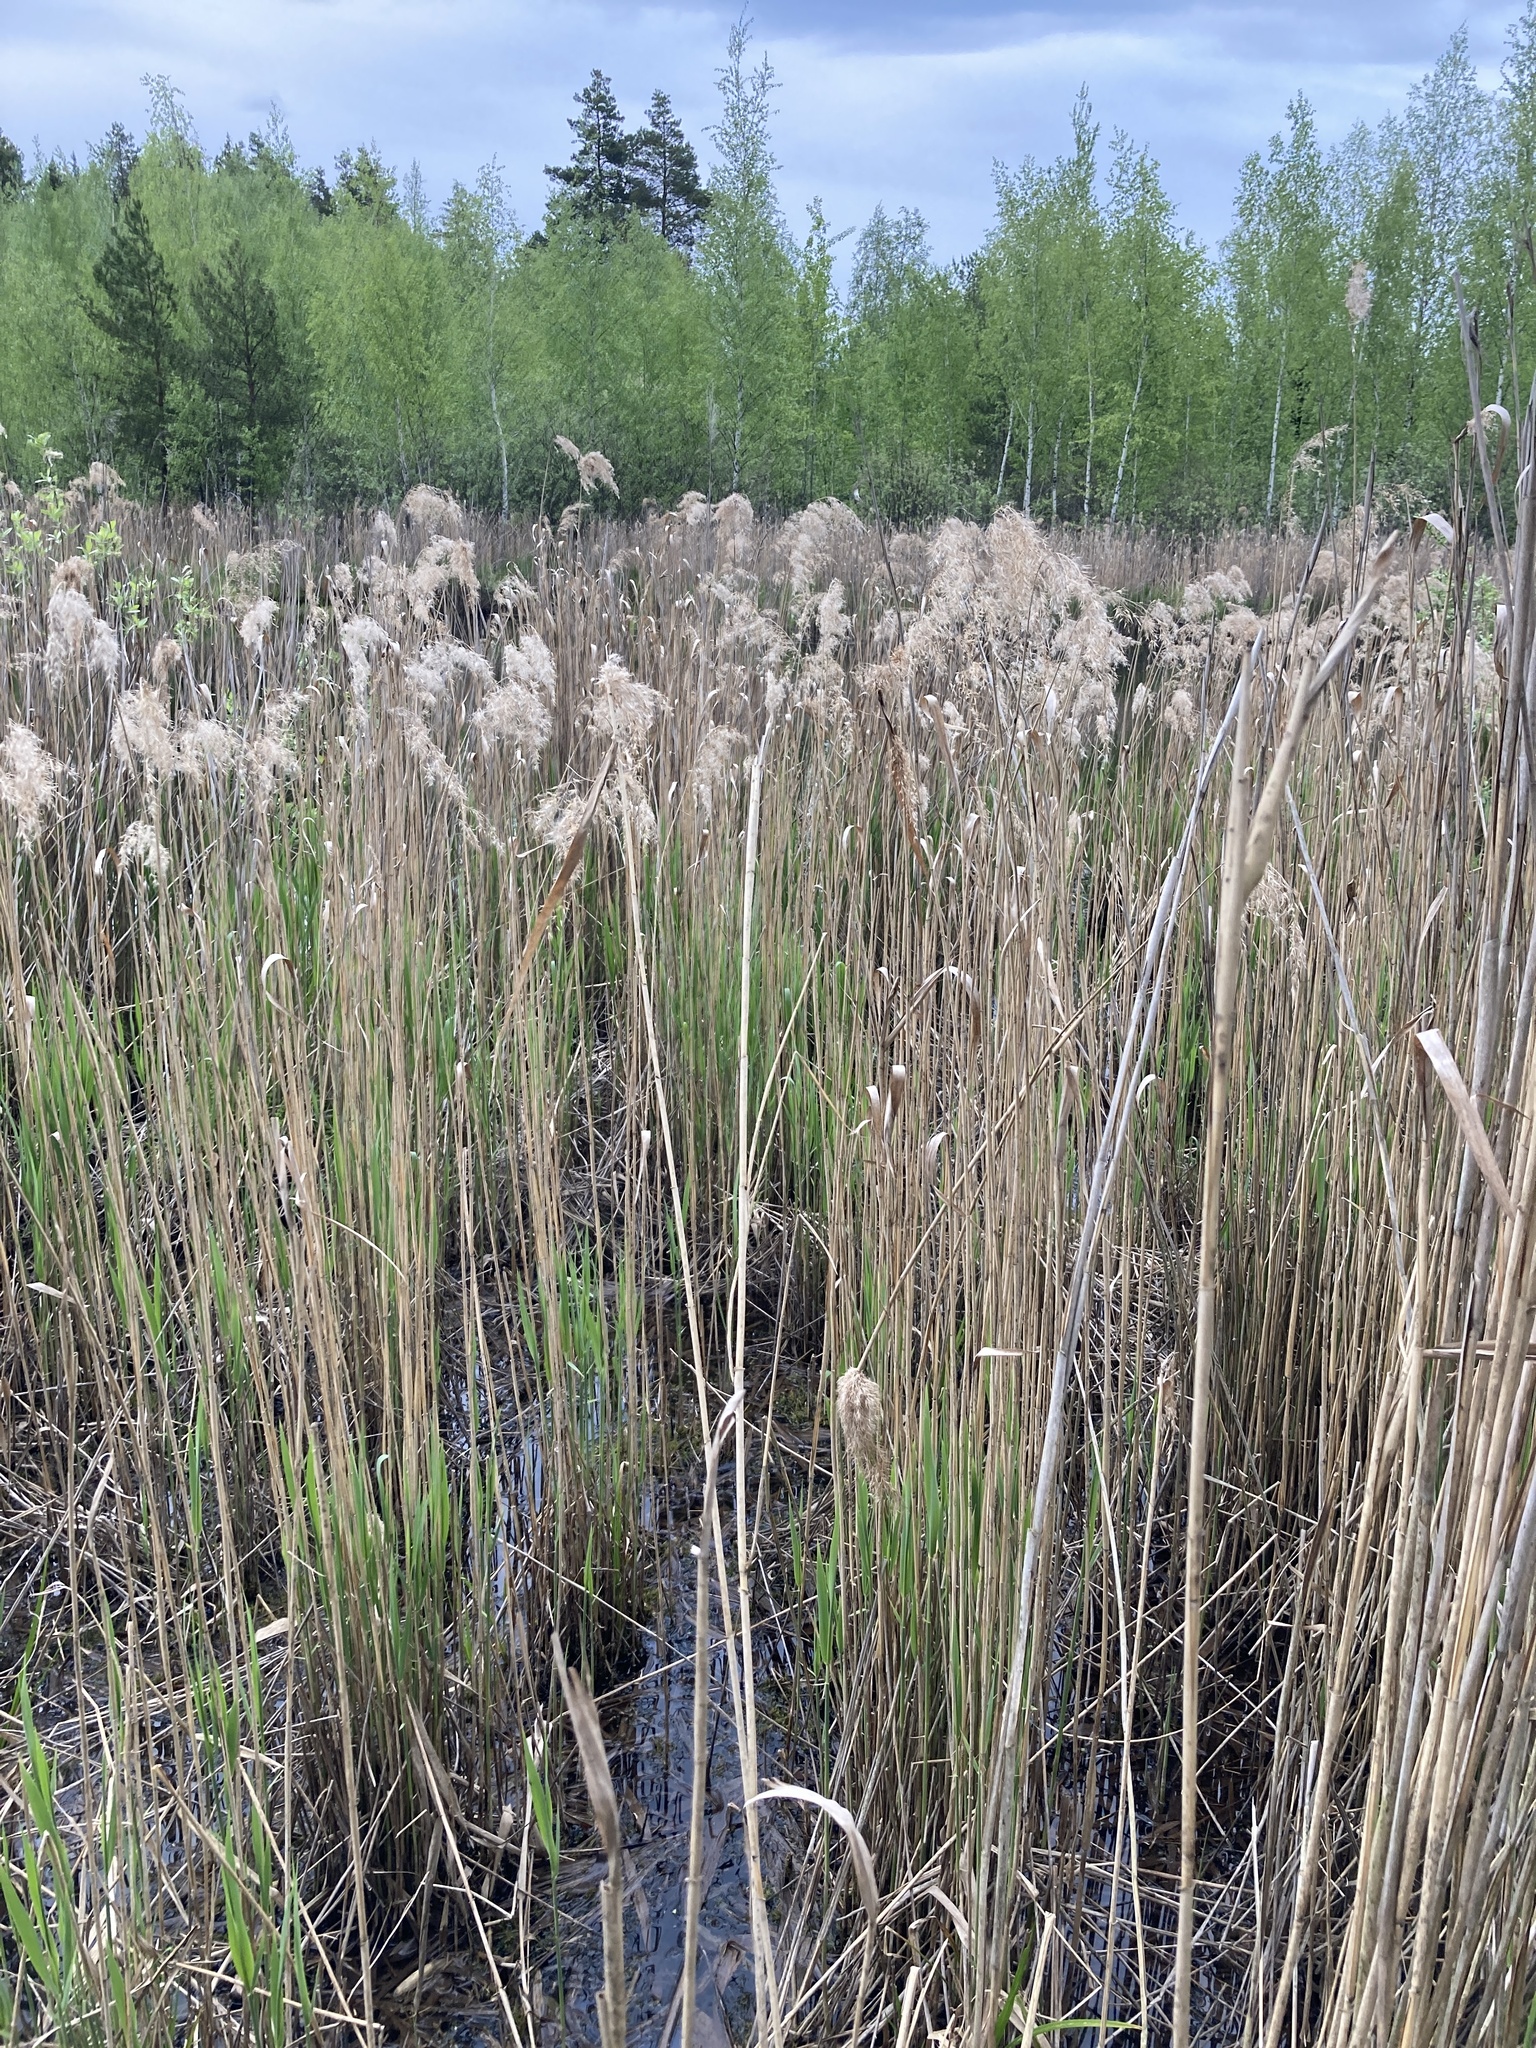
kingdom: Plantae
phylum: Tracheophyta
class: Liliopsida
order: Poales
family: Poaceae
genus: Phragmites
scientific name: Phragmites australis
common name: Common reed
